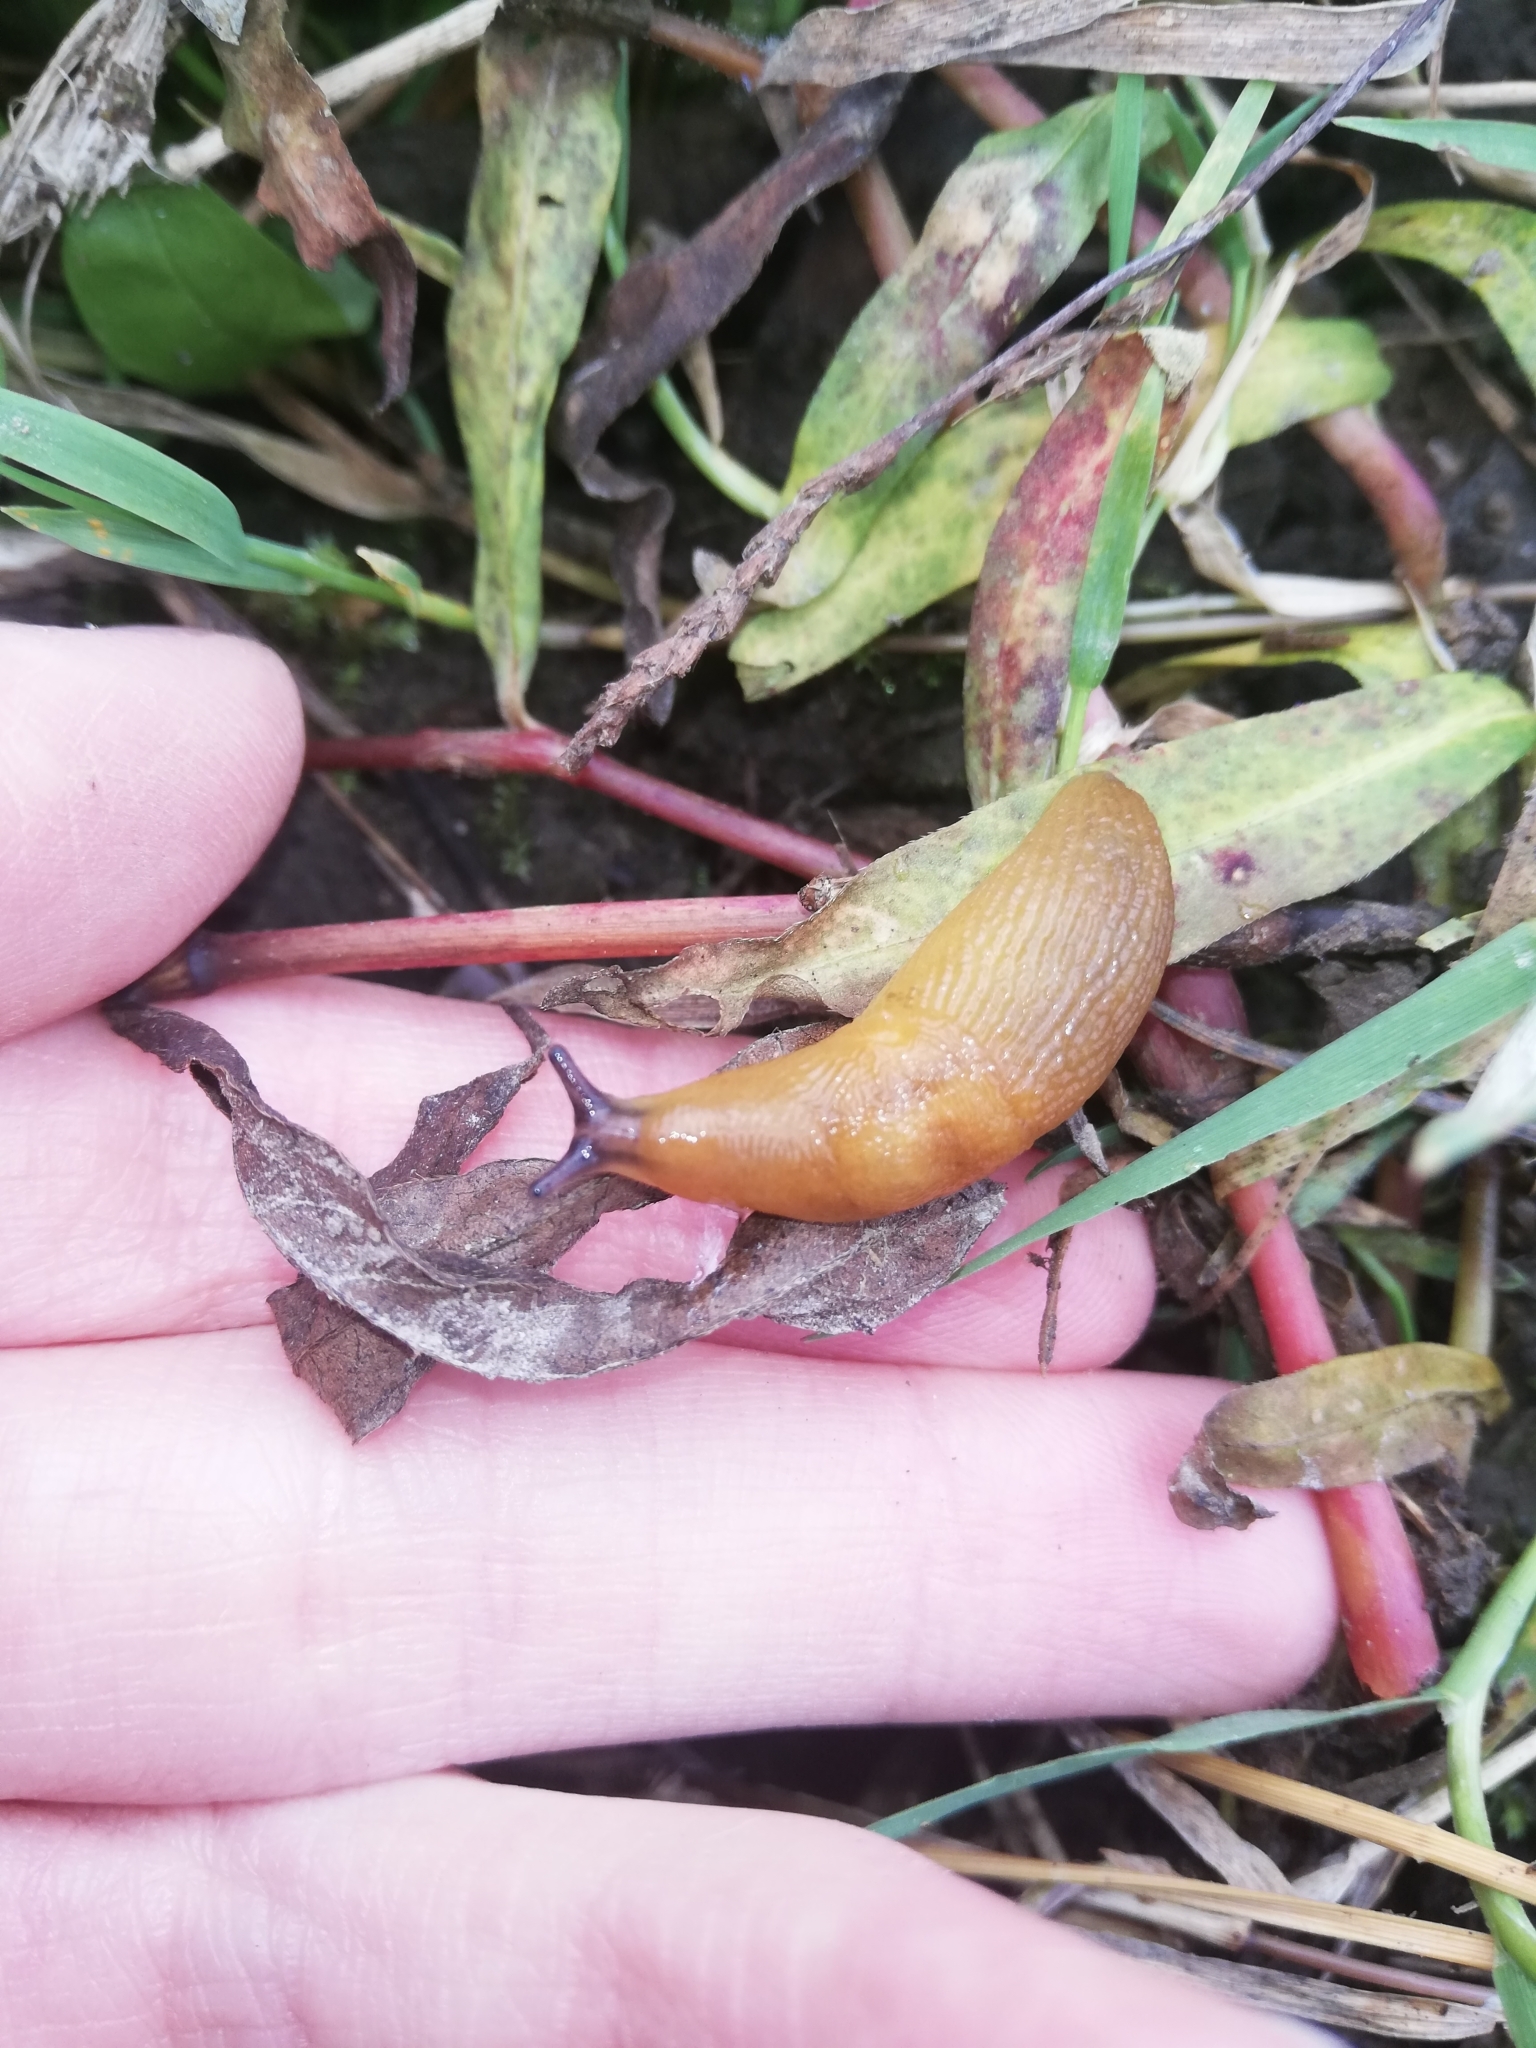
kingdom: Animalia
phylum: Mollusca
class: Gastropoda
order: Stylommatophora
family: Limacidae
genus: Malacolimax
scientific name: Malacolimax tenellus
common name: Lemon slug
